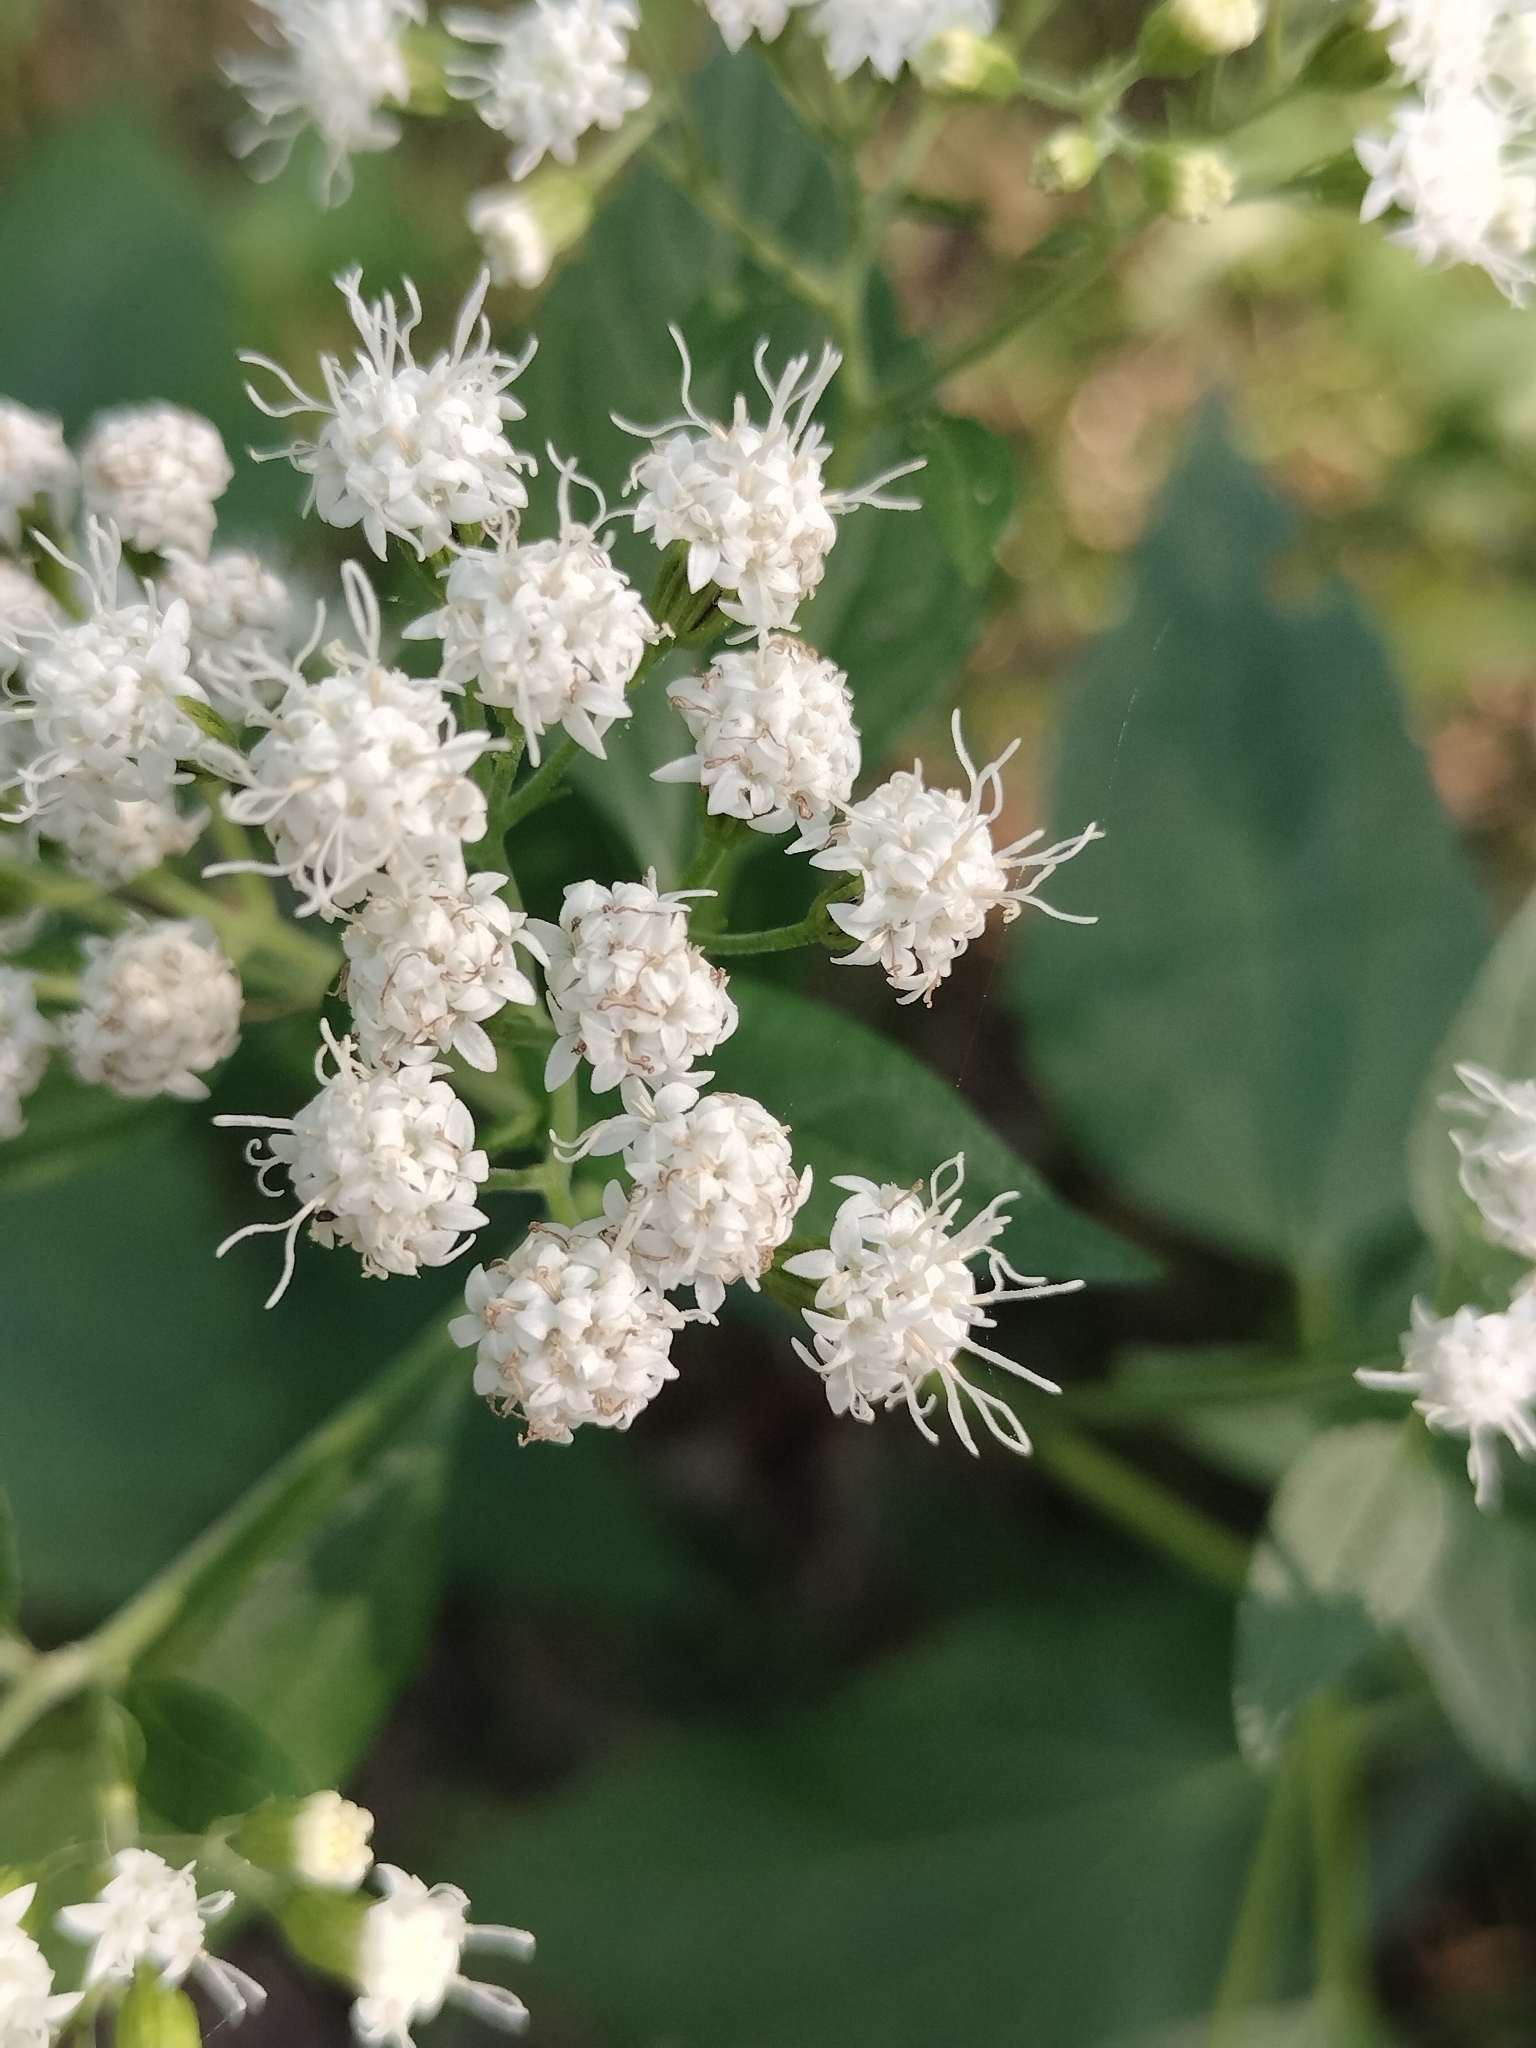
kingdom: Plantae
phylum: Tracheophyta
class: Magnoliopsida
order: Asterales
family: Asteraceae
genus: Ageratina
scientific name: Ageratina altissima
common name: White snakeroot
